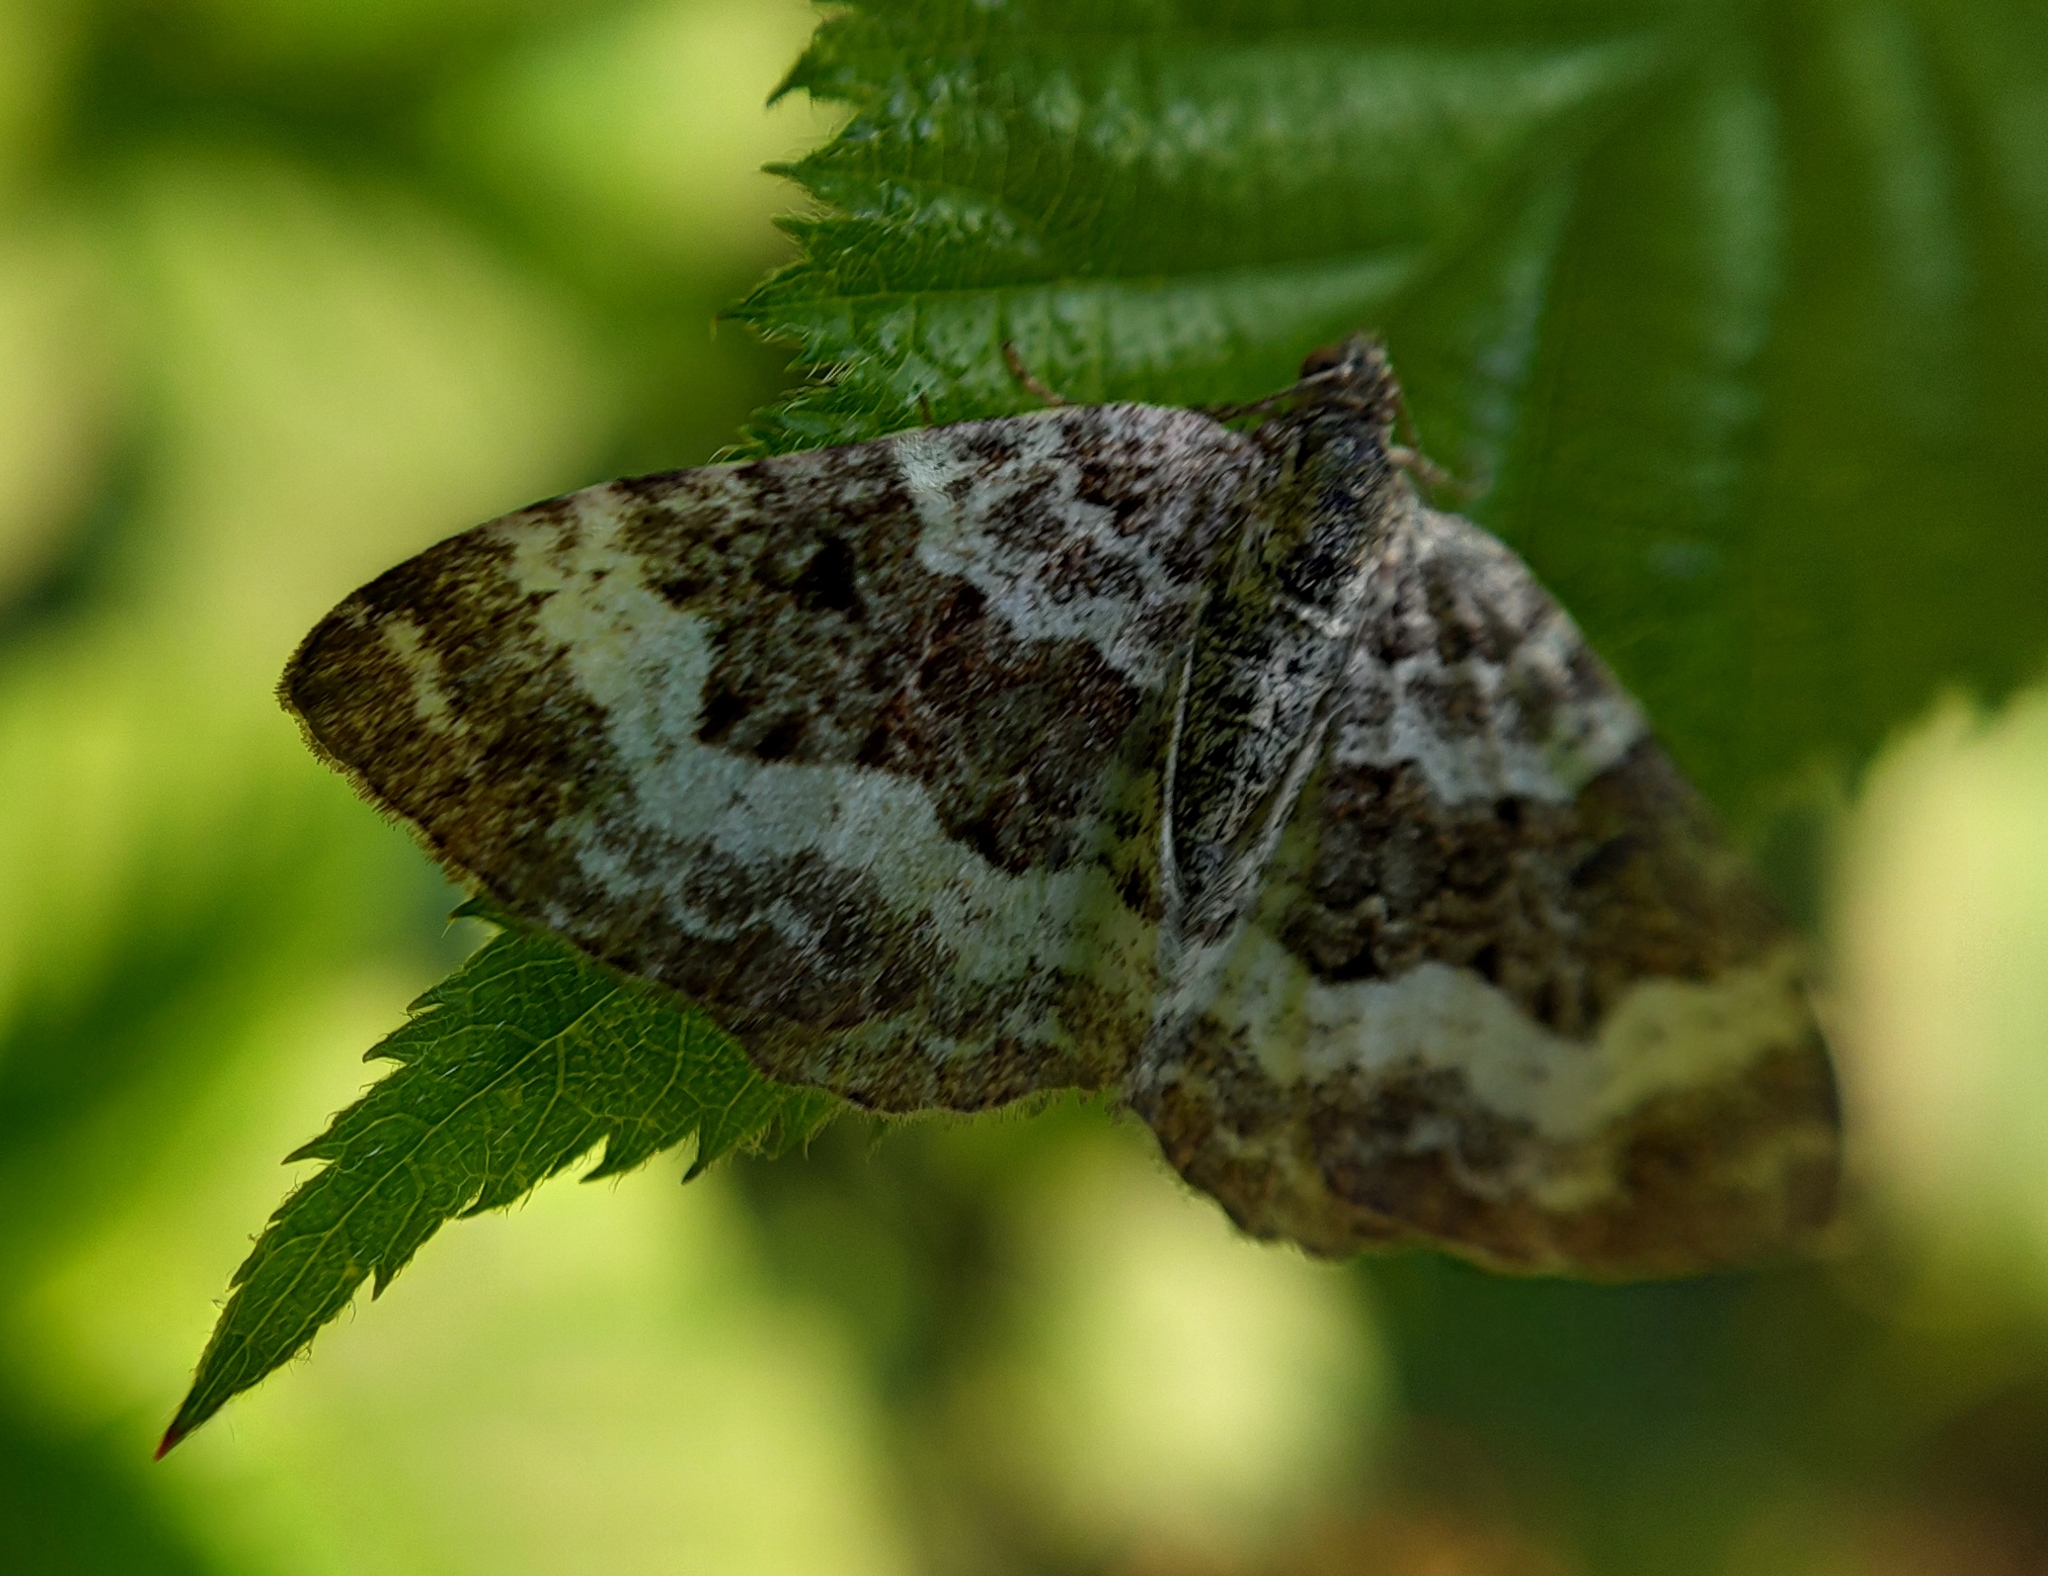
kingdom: Animalia
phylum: Arthropoda
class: Insecta
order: Lepidoptera
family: Geometridae
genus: Epirrhoe
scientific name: Epirrhoe alternata
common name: Common carpet
